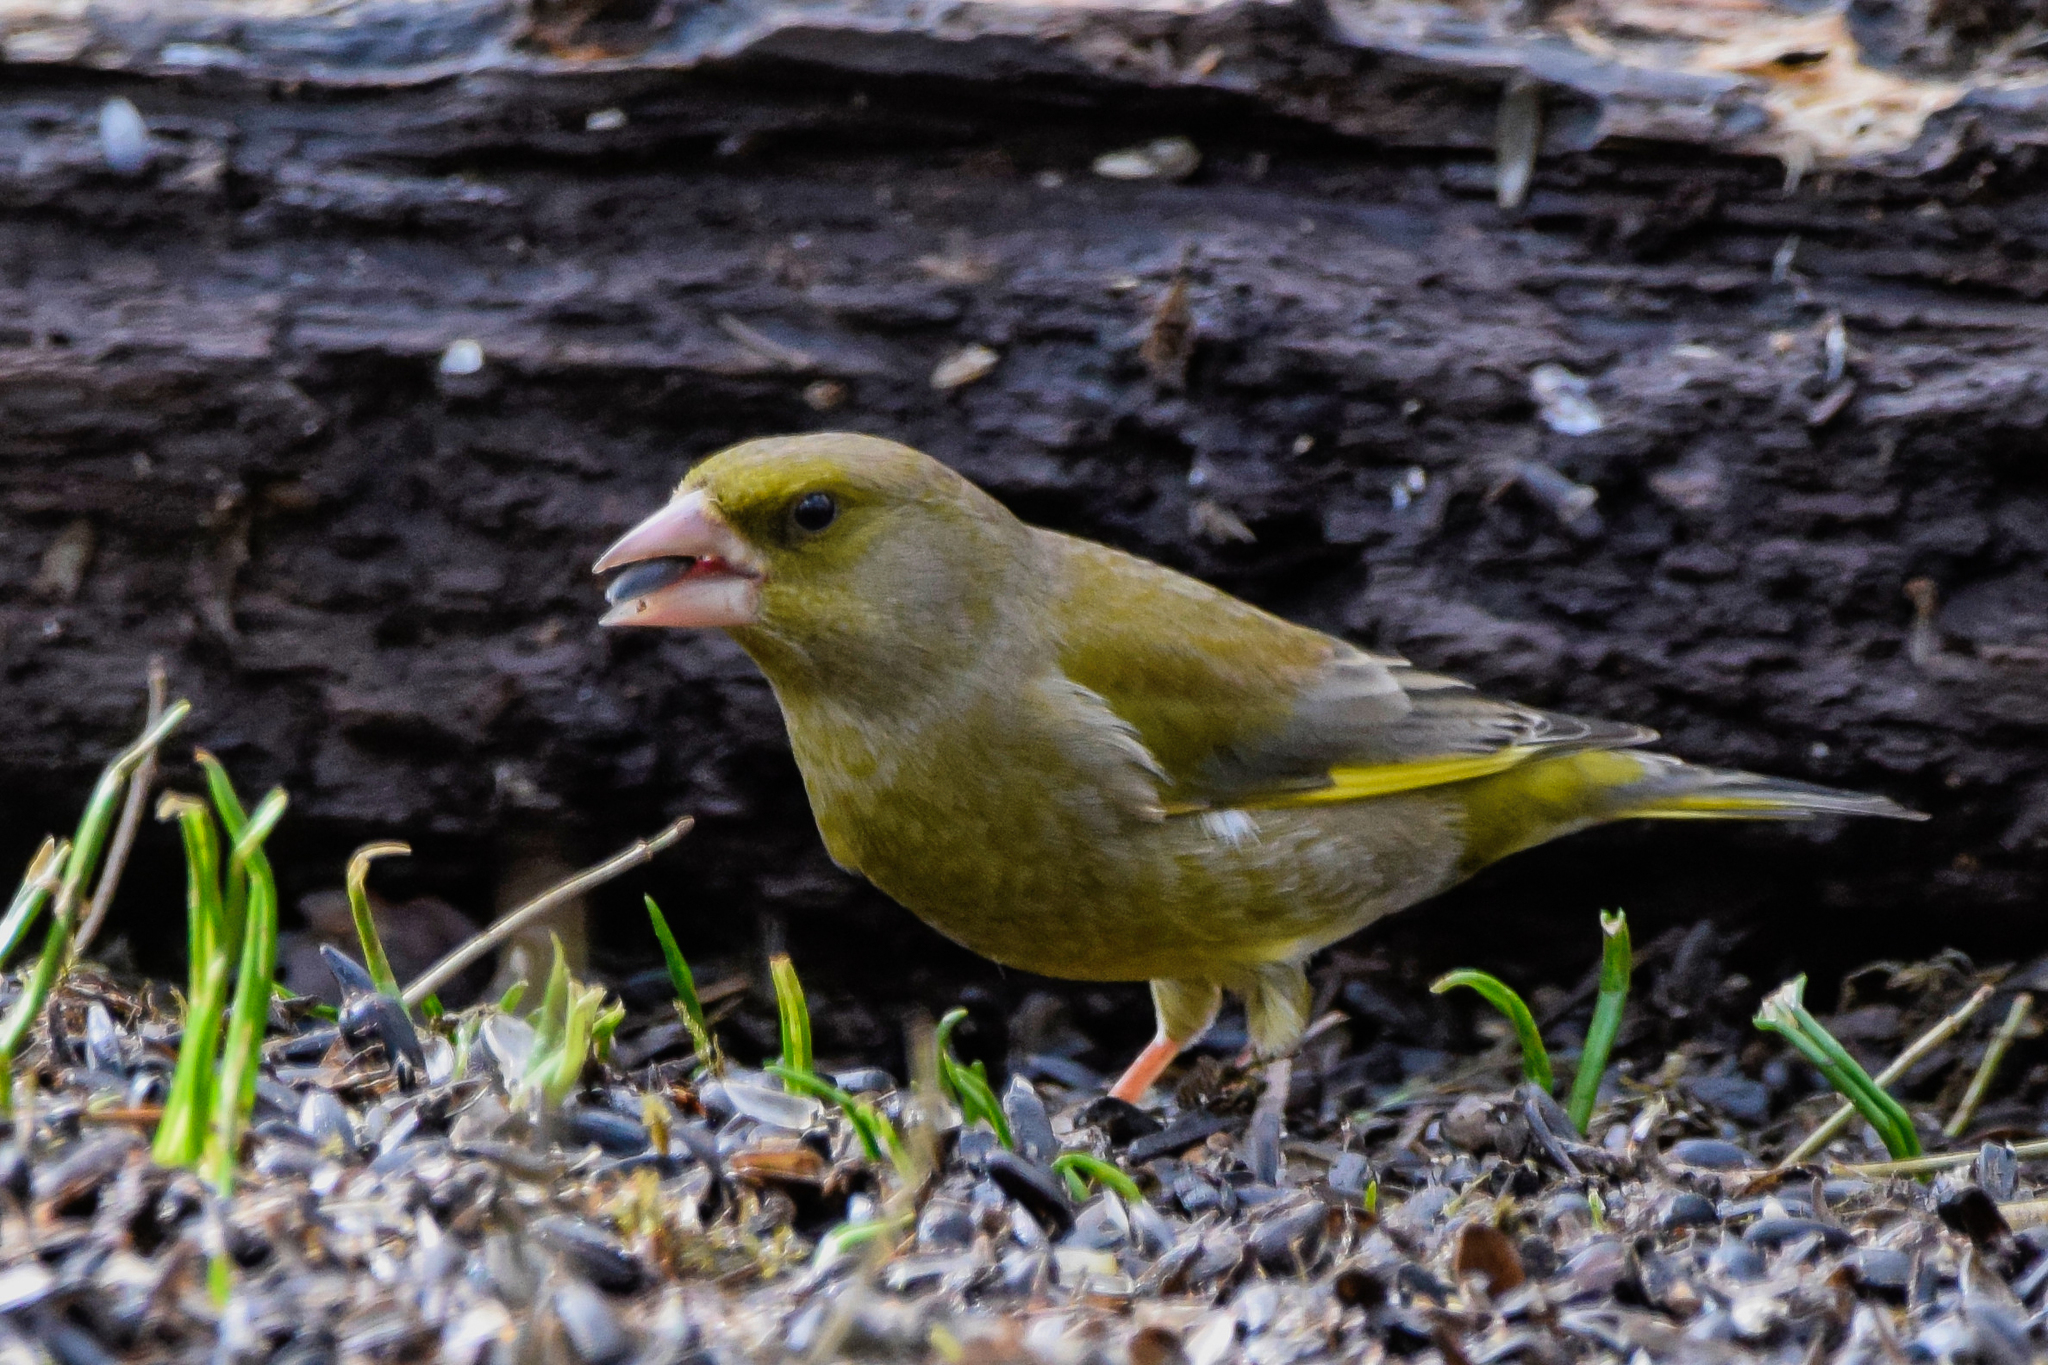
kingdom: Plantae
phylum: Tracheophyta
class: Liliopsida
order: Poales
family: Poaceae
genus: Chloris
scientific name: Chloris chloris
